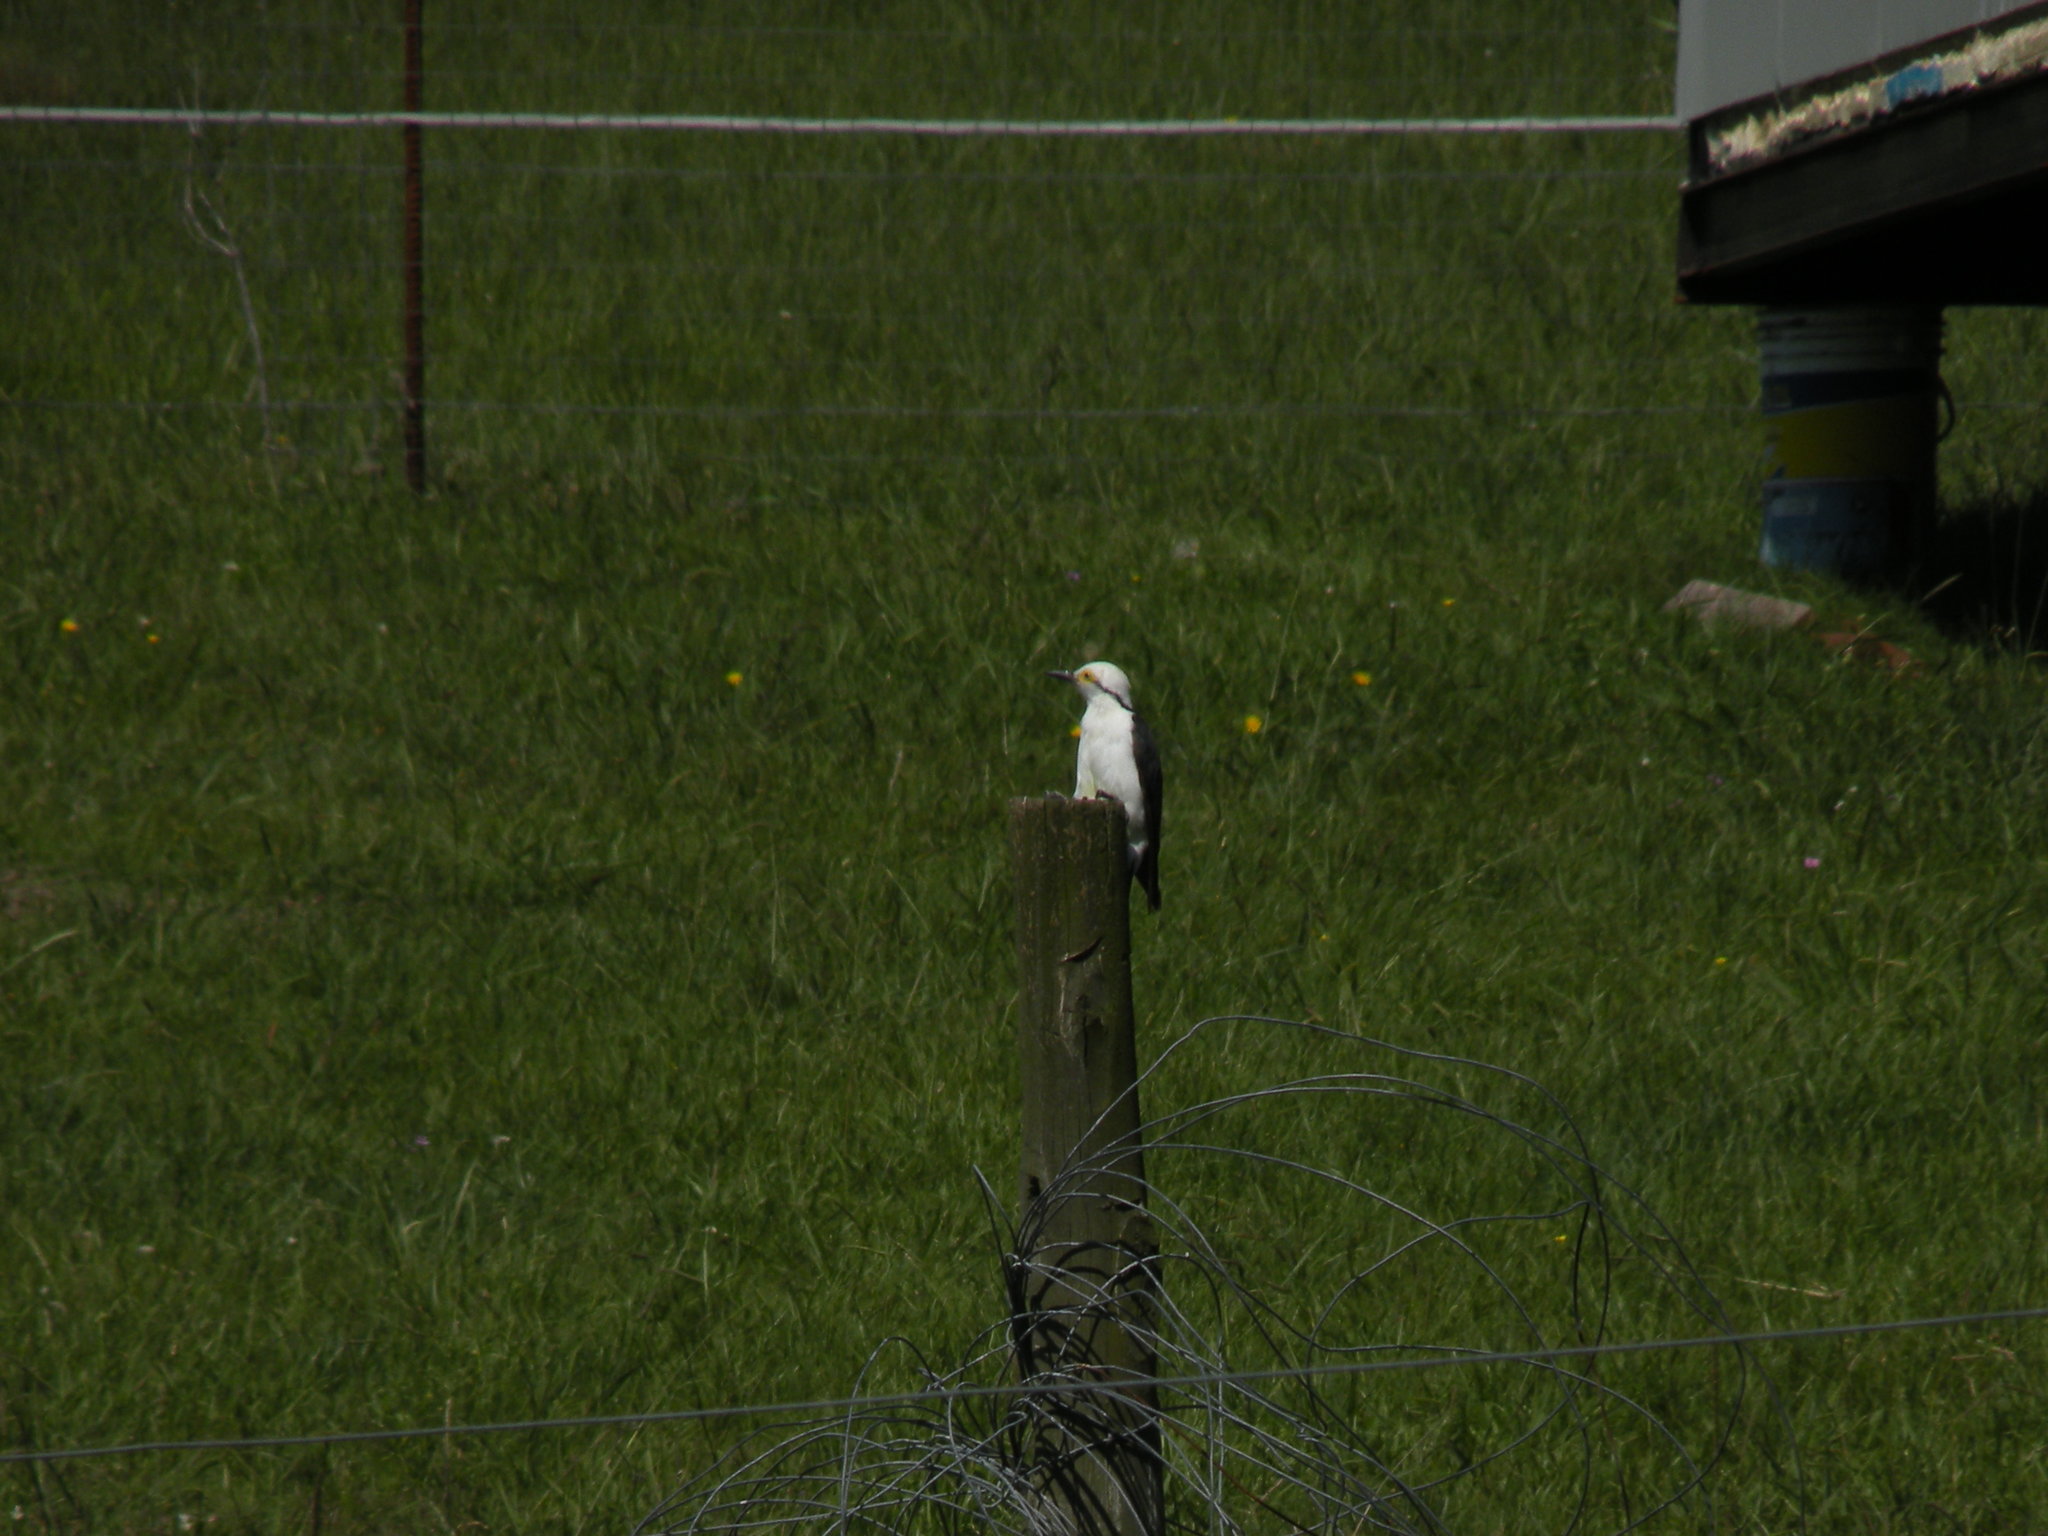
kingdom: Animalia
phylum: Chordata
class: Aves
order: Piciformes
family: Picidae
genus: Melanerpes
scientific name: Melanerpes candidus
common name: White woodpecker
